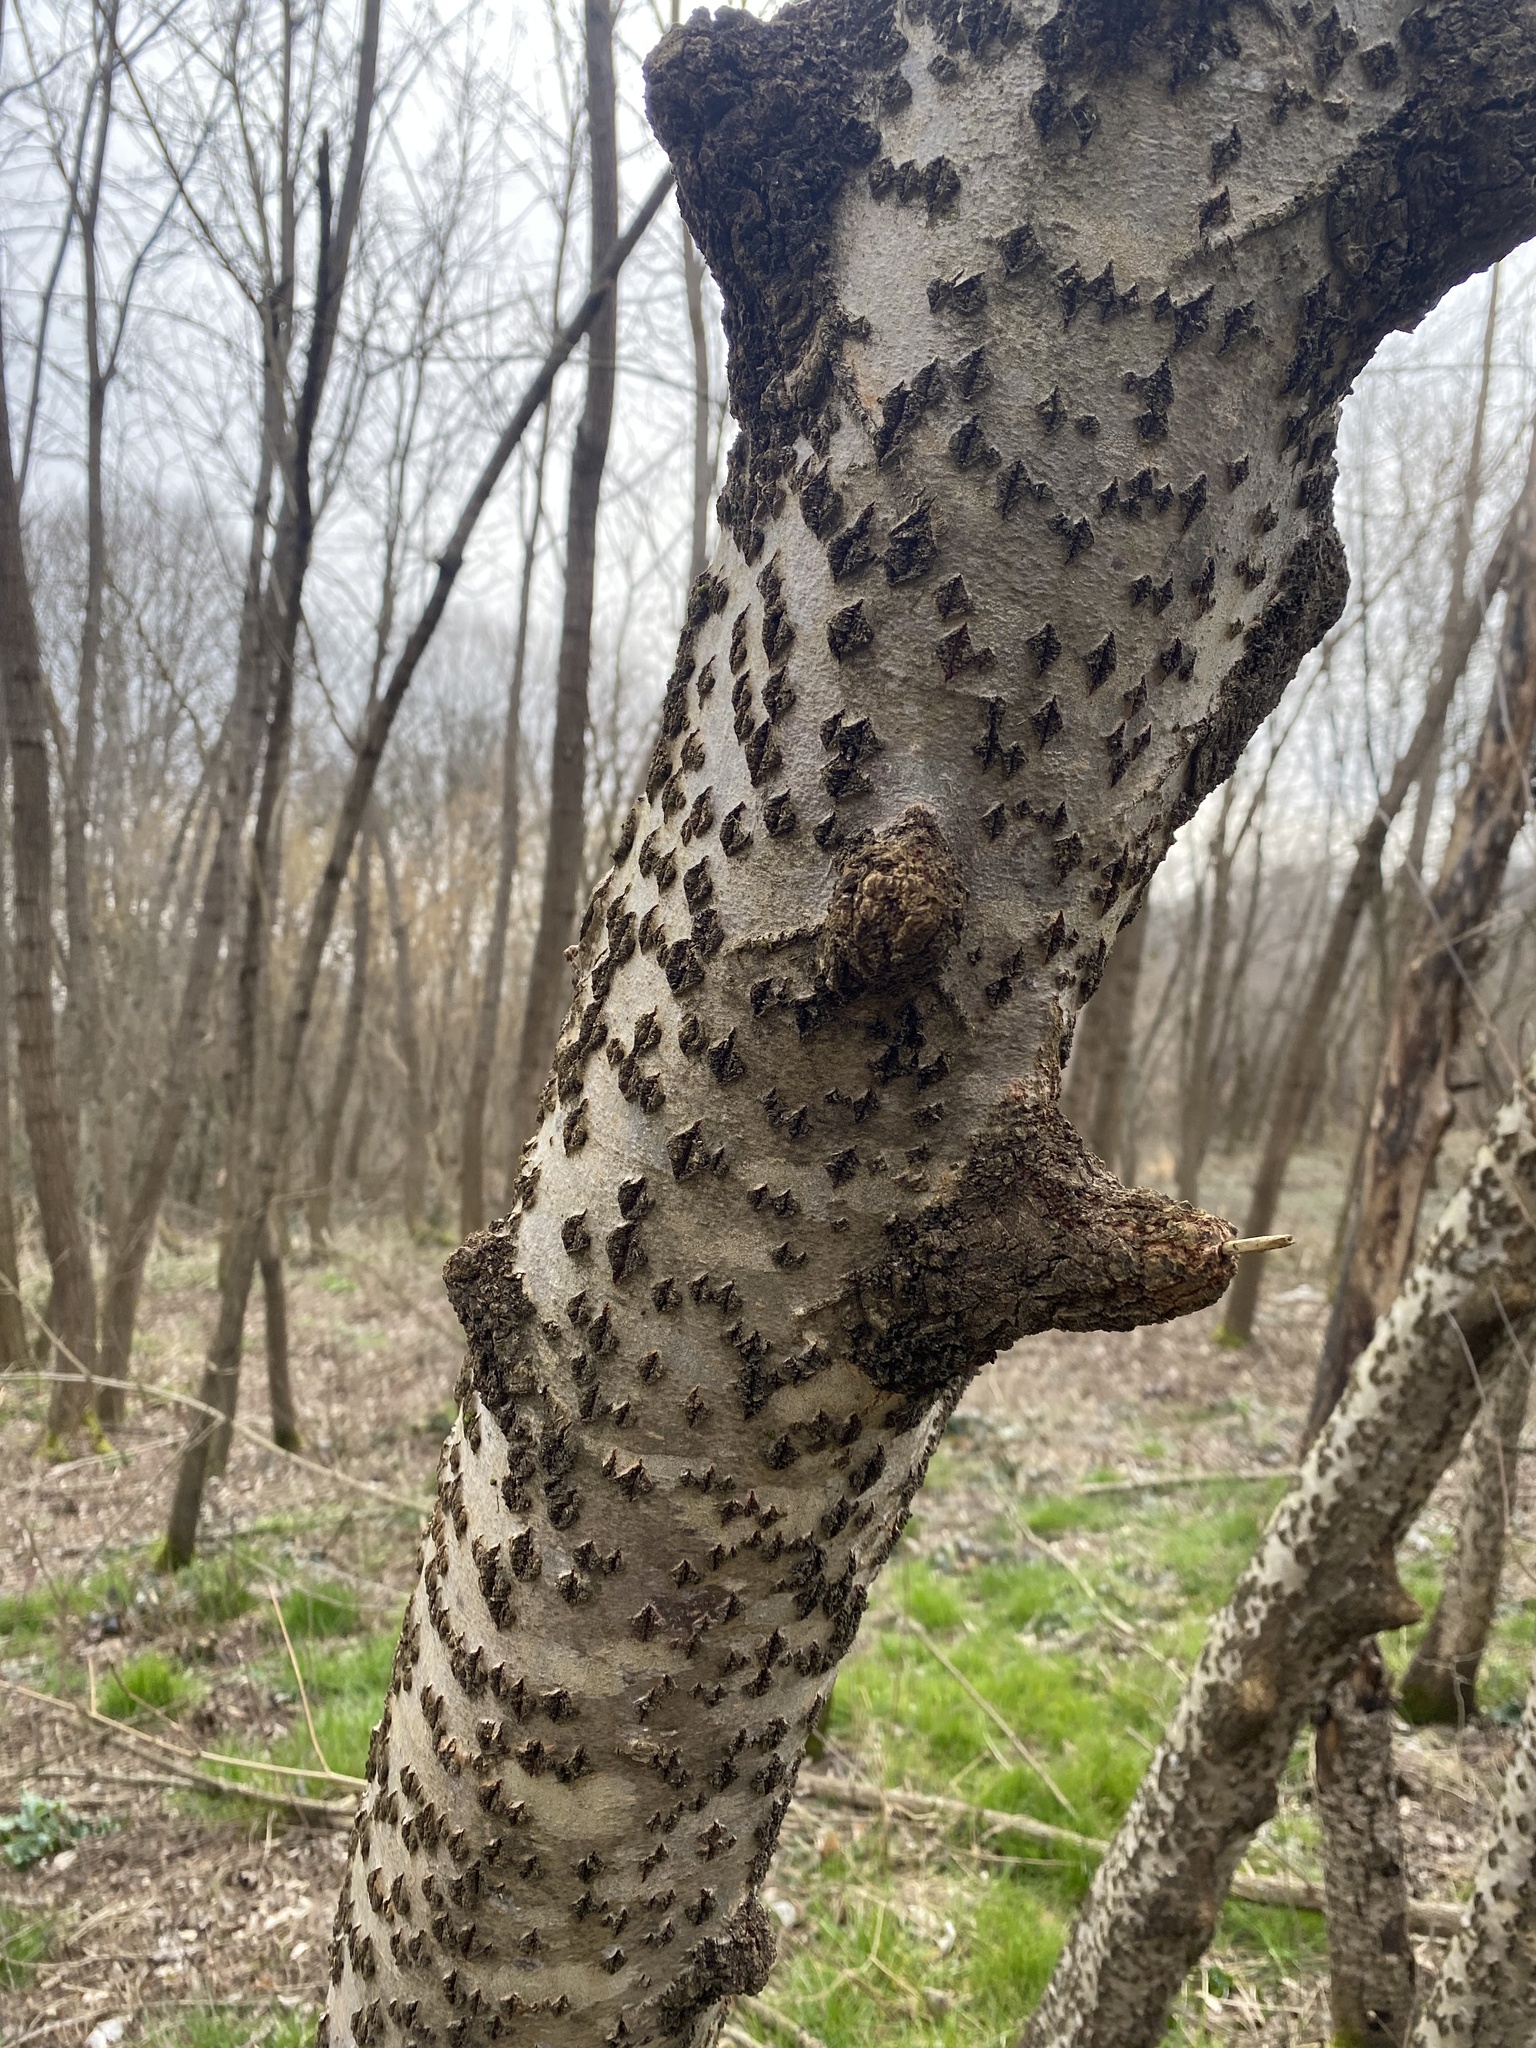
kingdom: Plantae
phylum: Tracheophyta
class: Magnoliopsida
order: Malpighiales
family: Salicaceae
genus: Populus
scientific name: Populus alba
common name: White poplar
